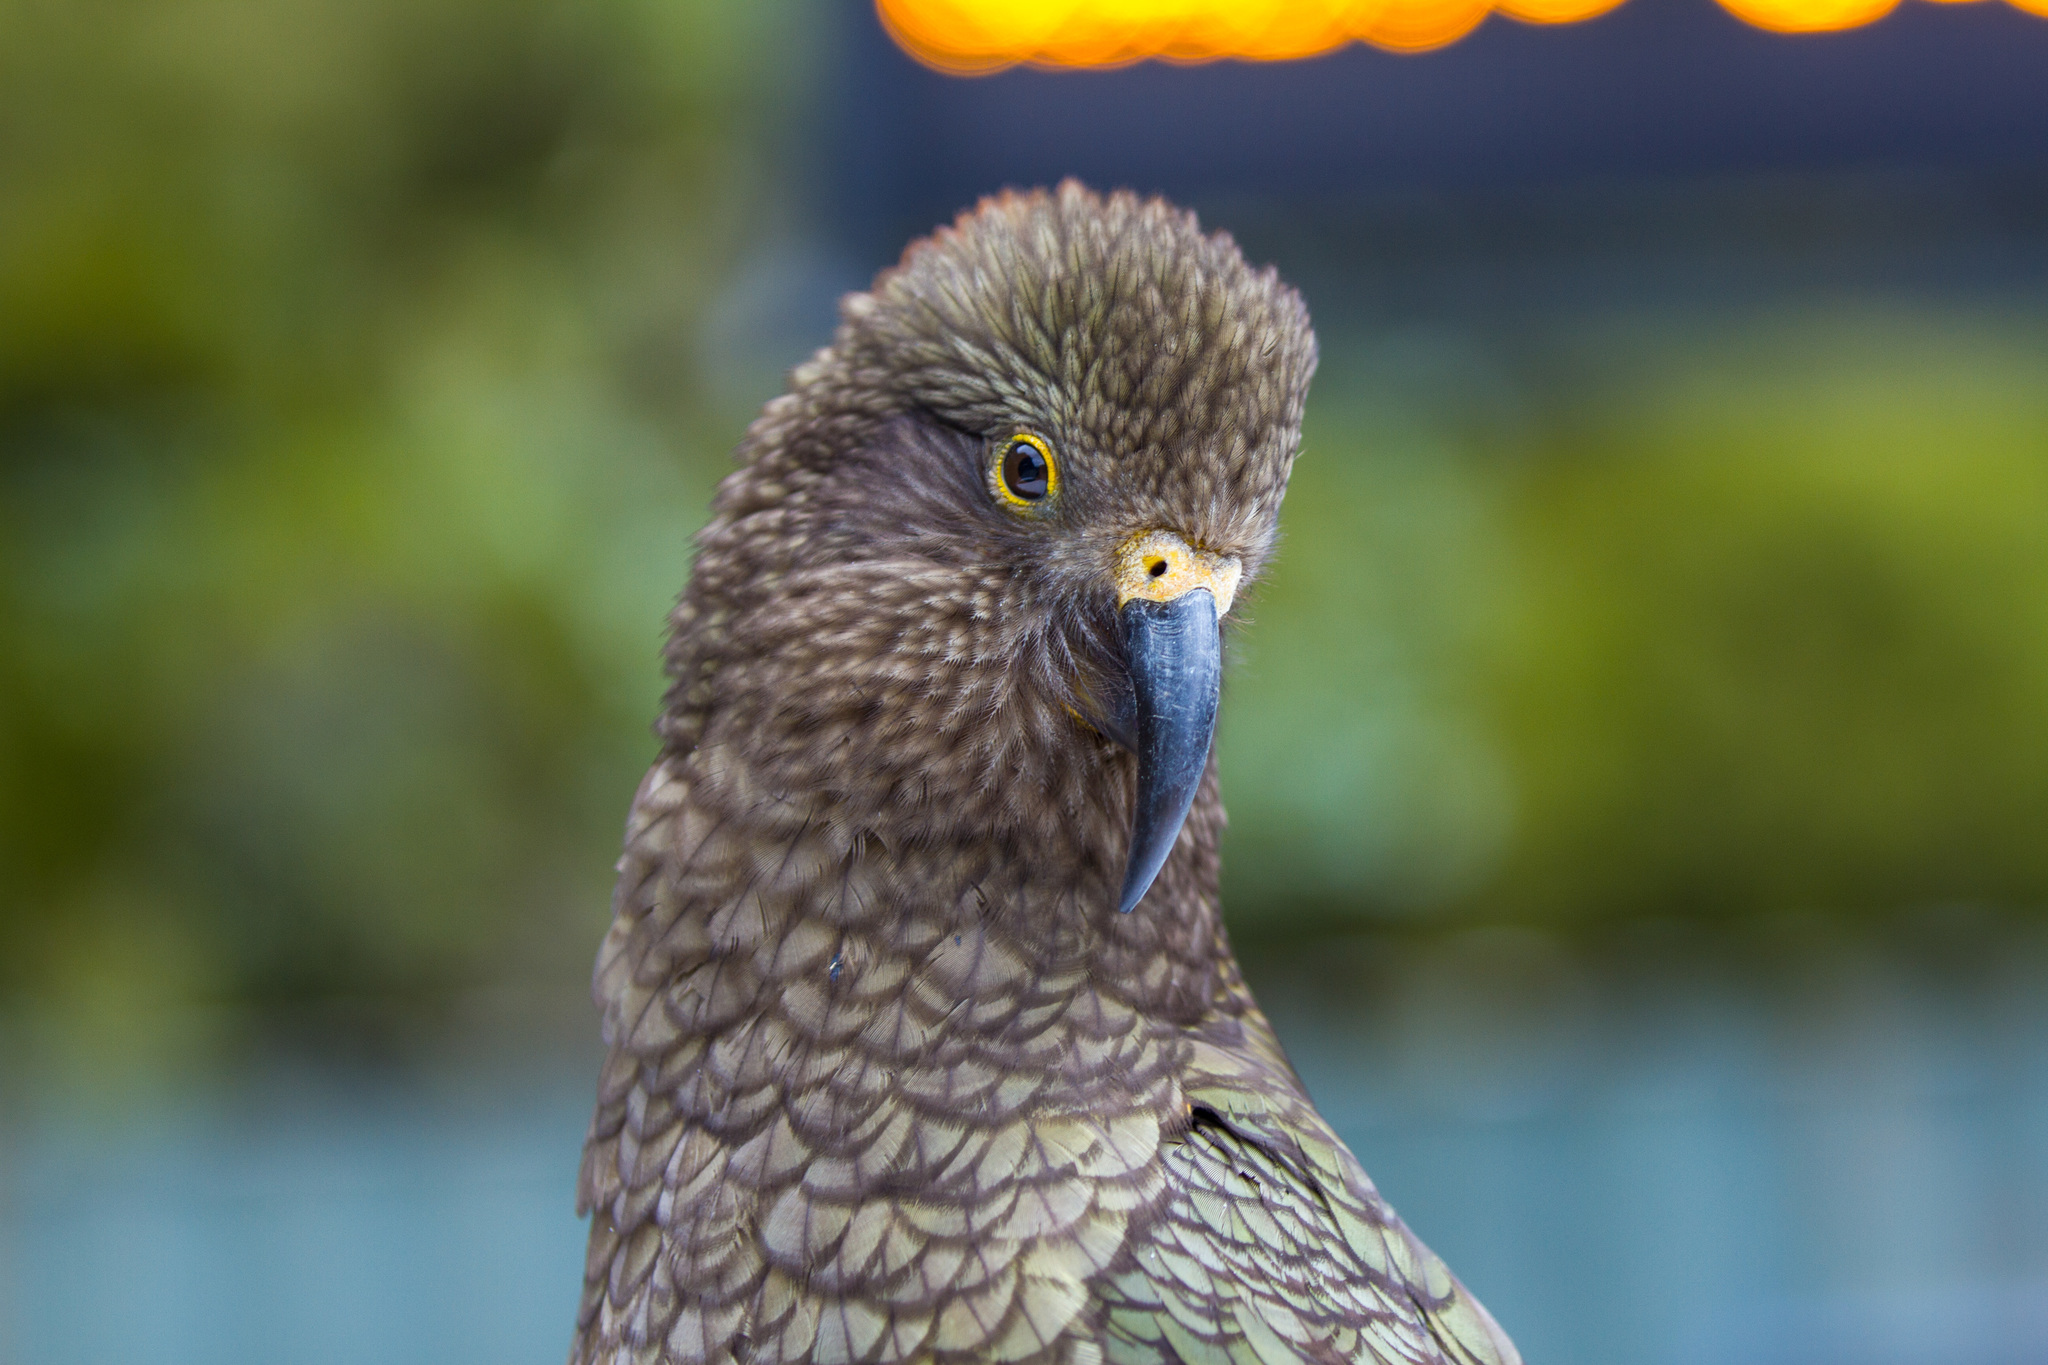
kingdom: Animalia
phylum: Chordata
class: Aves
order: Psittaciformes
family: Psittacidae
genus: Nestor
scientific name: Nestor notabilis
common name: Kea
